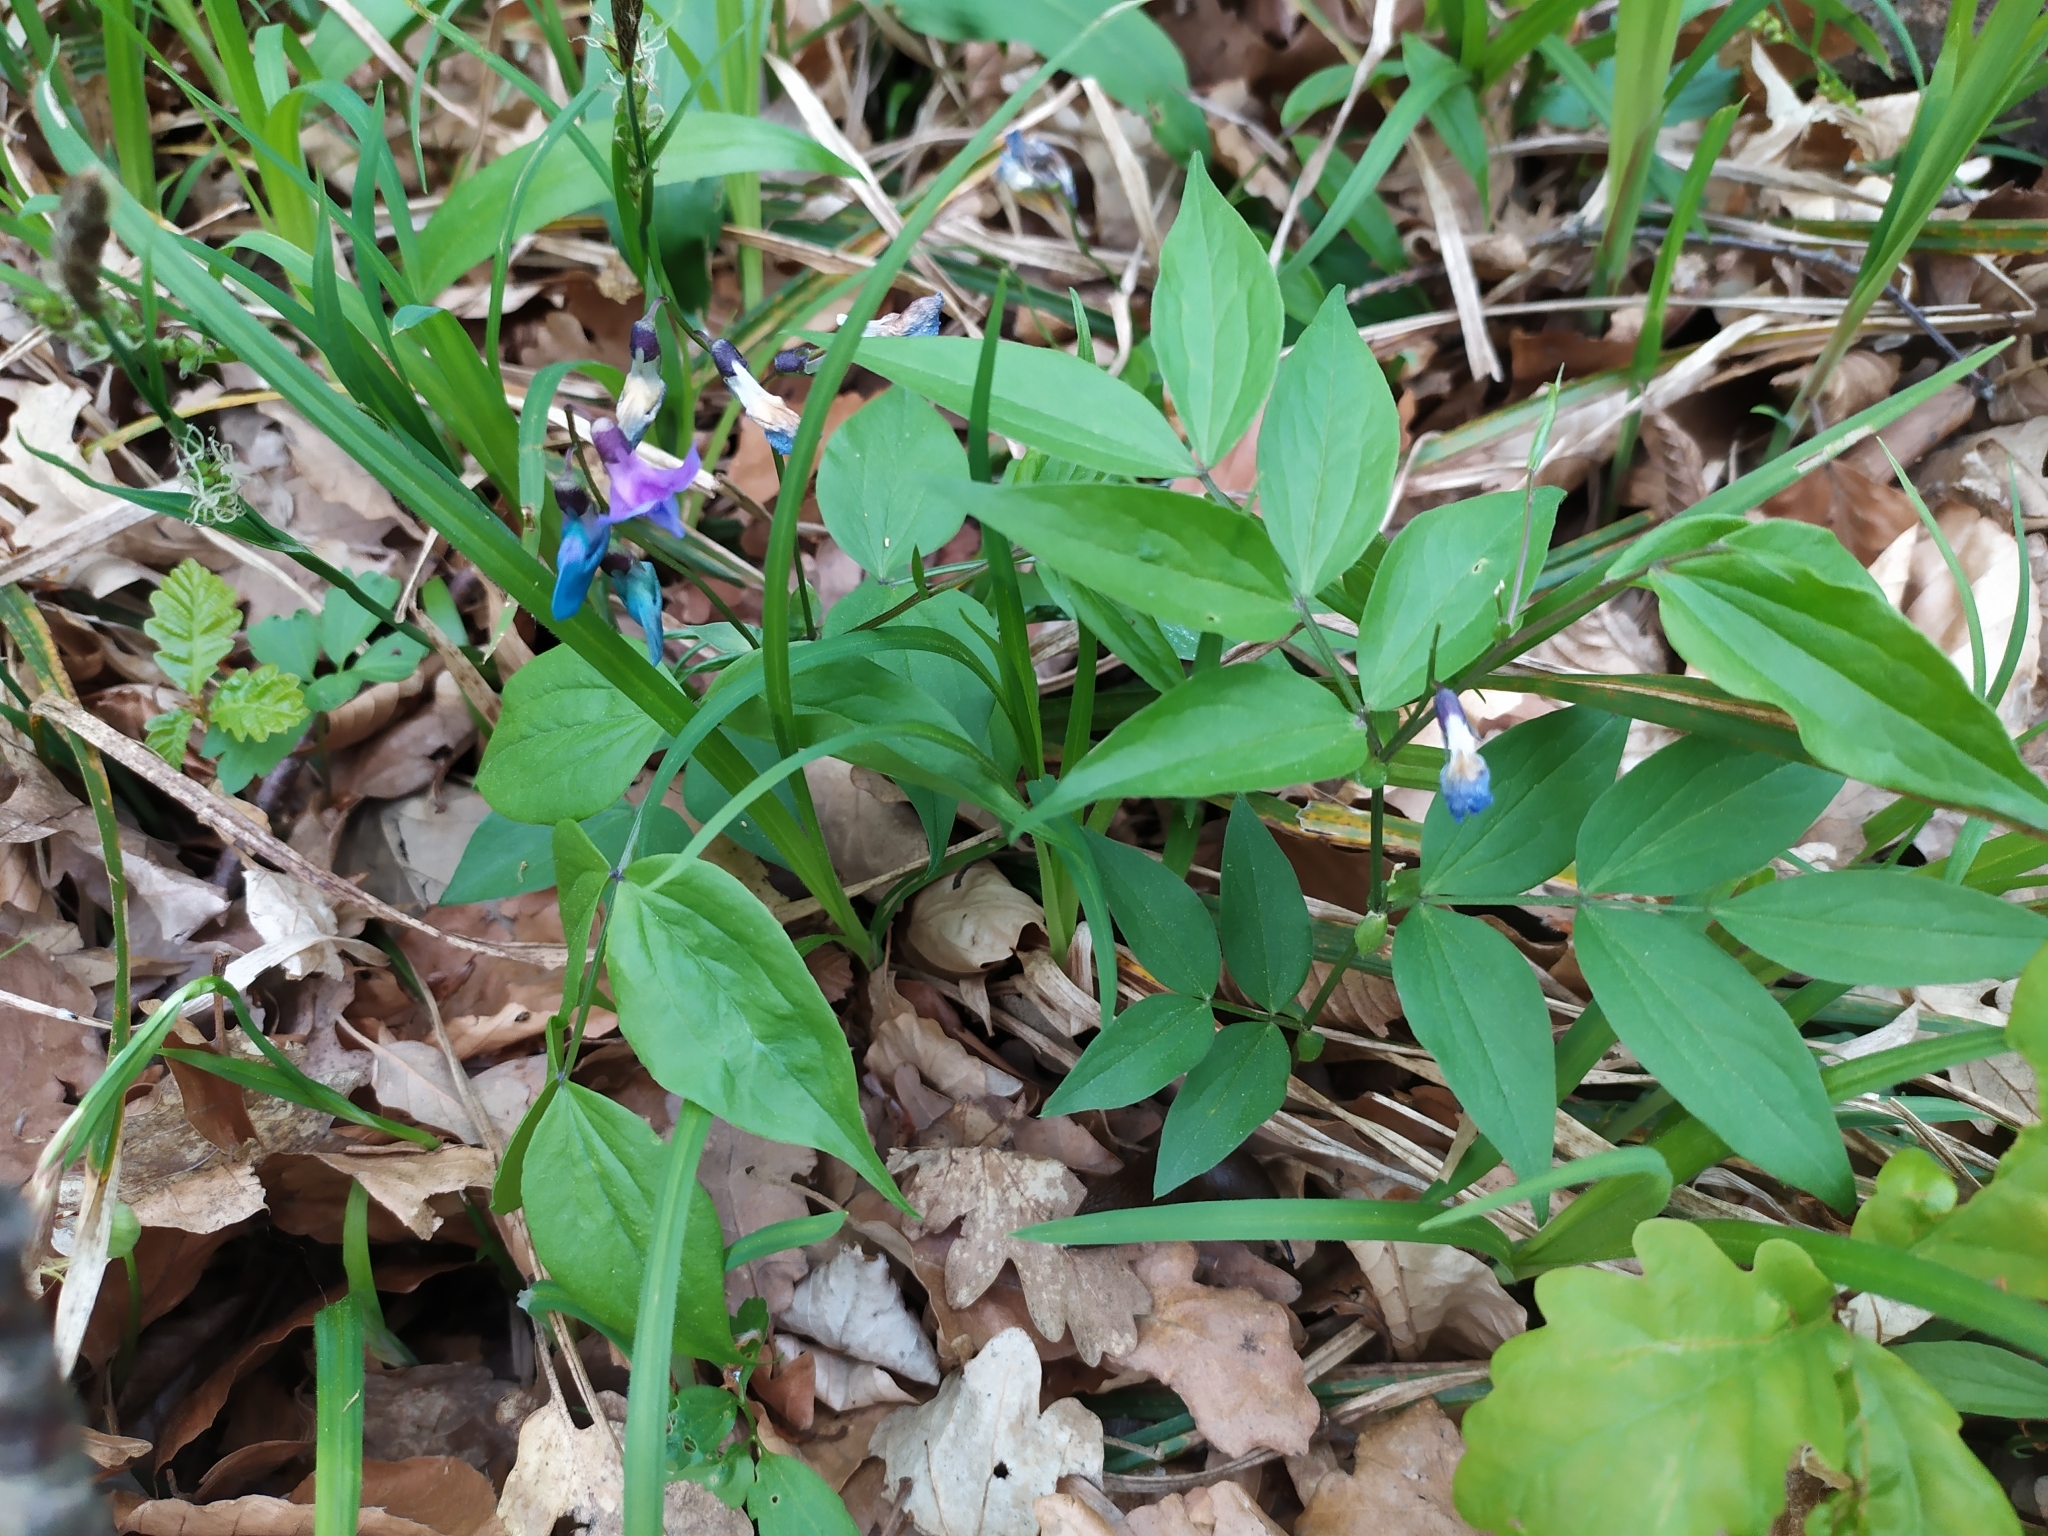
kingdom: Plantae
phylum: Tracheophyta
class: Magnoliopsida
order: Fabales
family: Fabaceae
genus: Lathyrus
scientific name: Lathyrus vernus
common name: Spring pea
